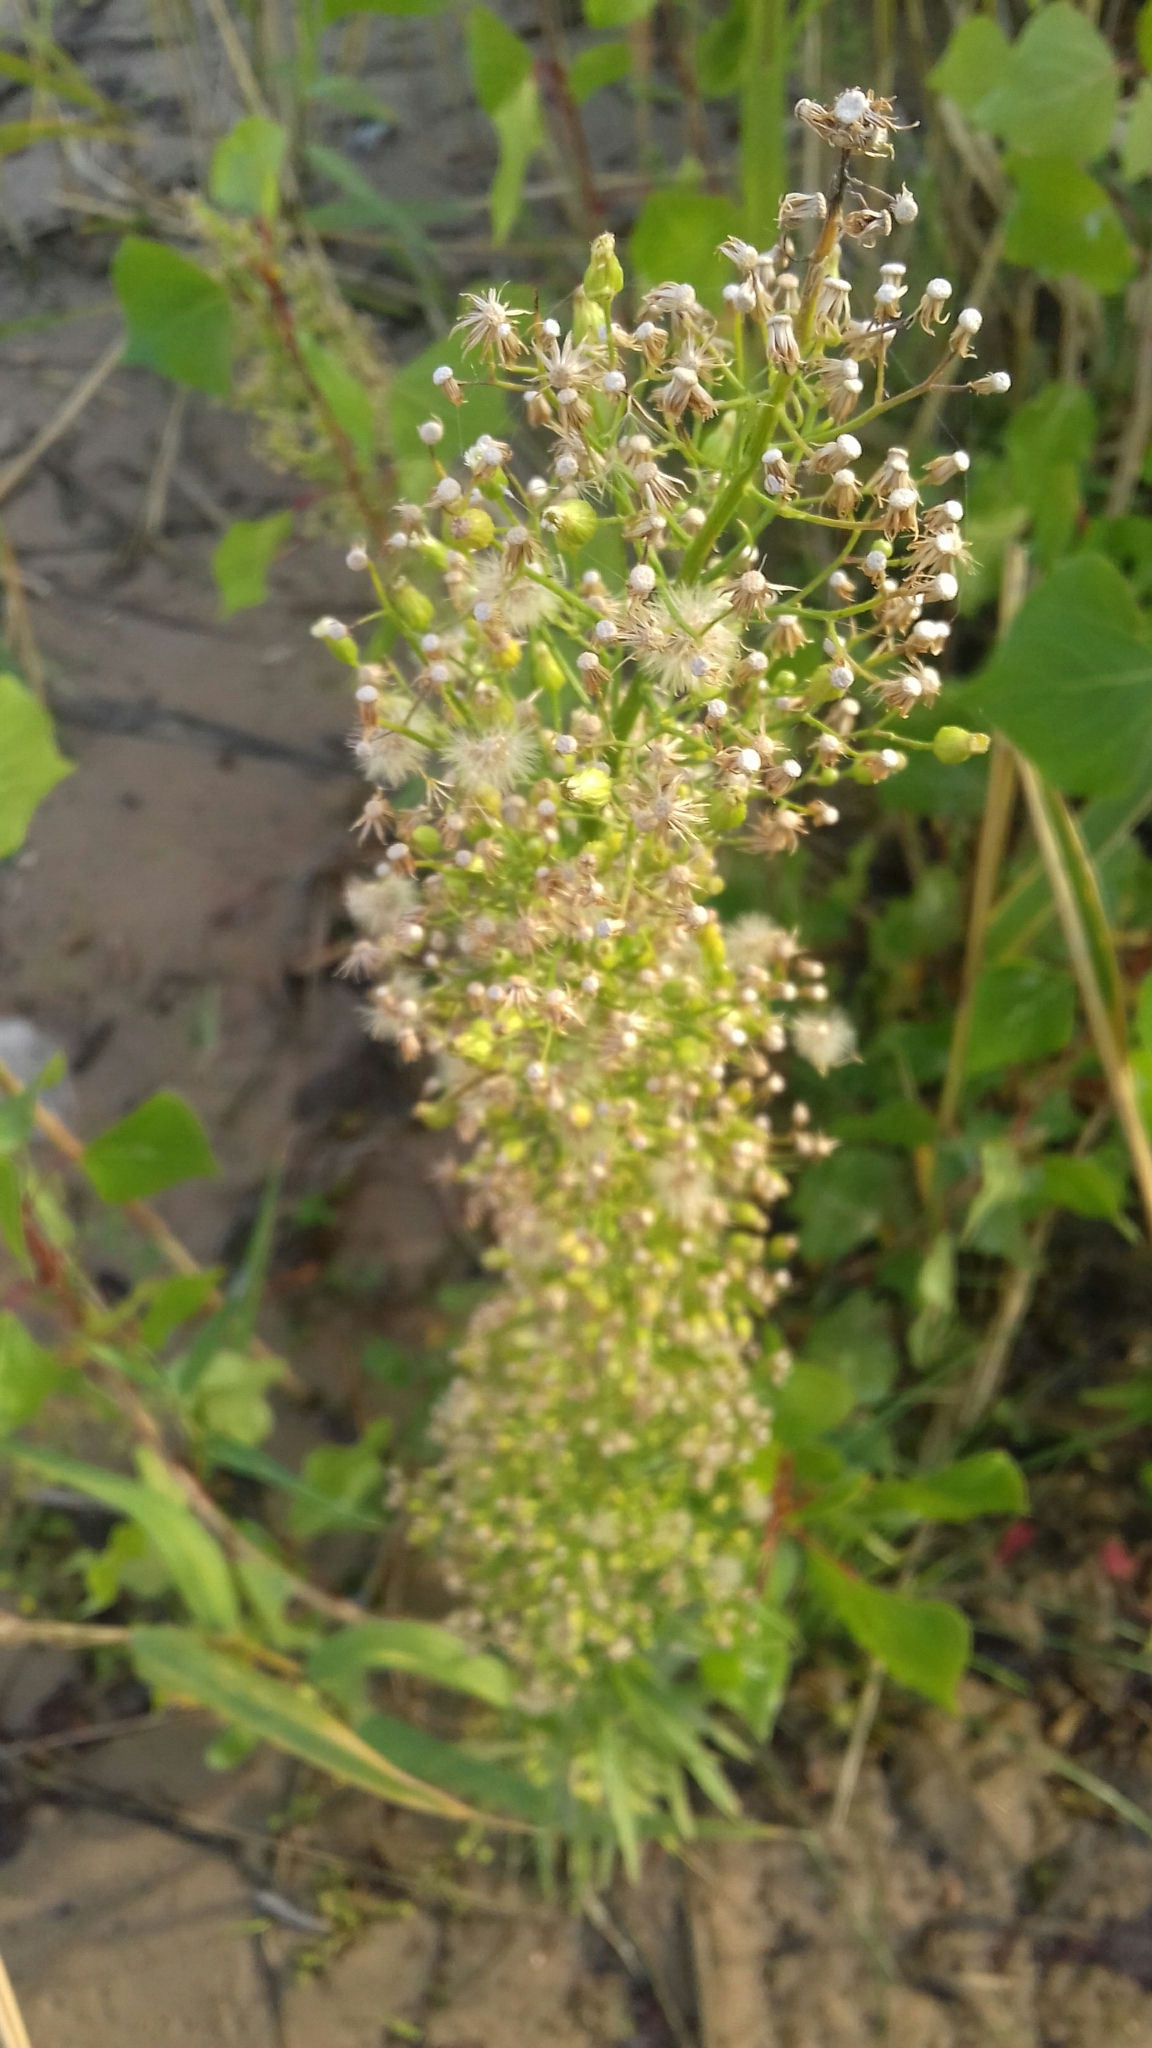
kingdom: Plantae
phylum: Tracheophyta
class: Magnoliopsida
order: Asterales
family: Asteraceae
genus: Erigeron
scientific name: Erigeron canadensis
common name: Canadian fleabane
